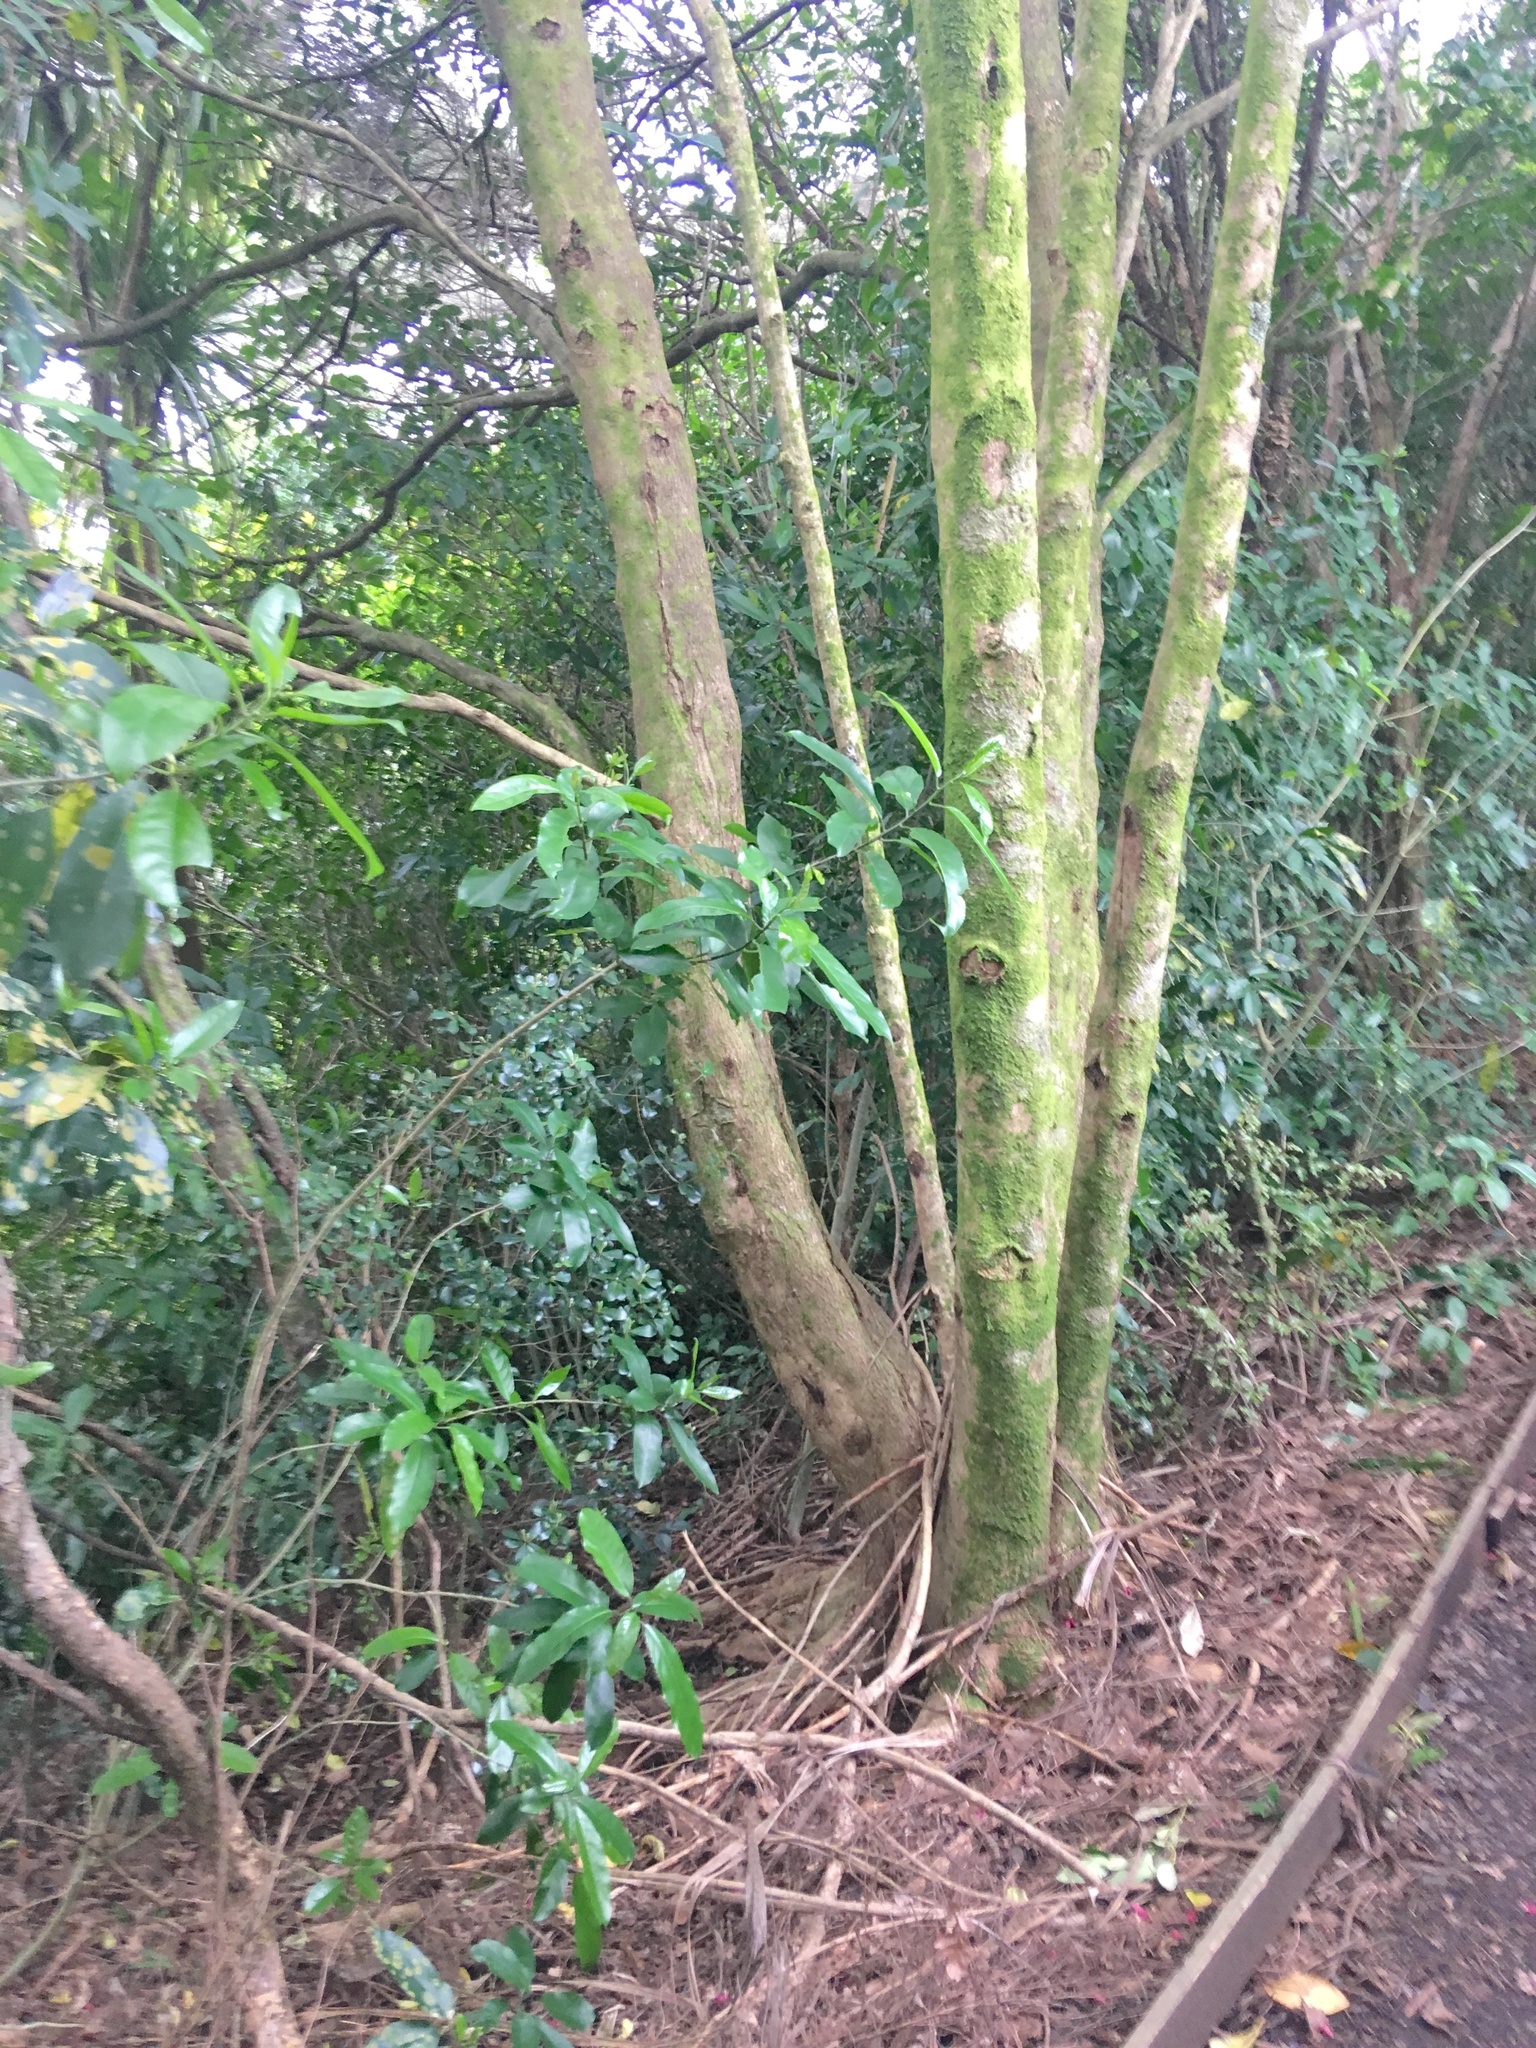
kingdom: Plantae
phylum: Tracheophyta
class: Magnoliopsida
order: Malpighiales
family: Violaceae
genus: Melicytus
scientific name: Melicytus ramiflorus
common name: Mahoe
